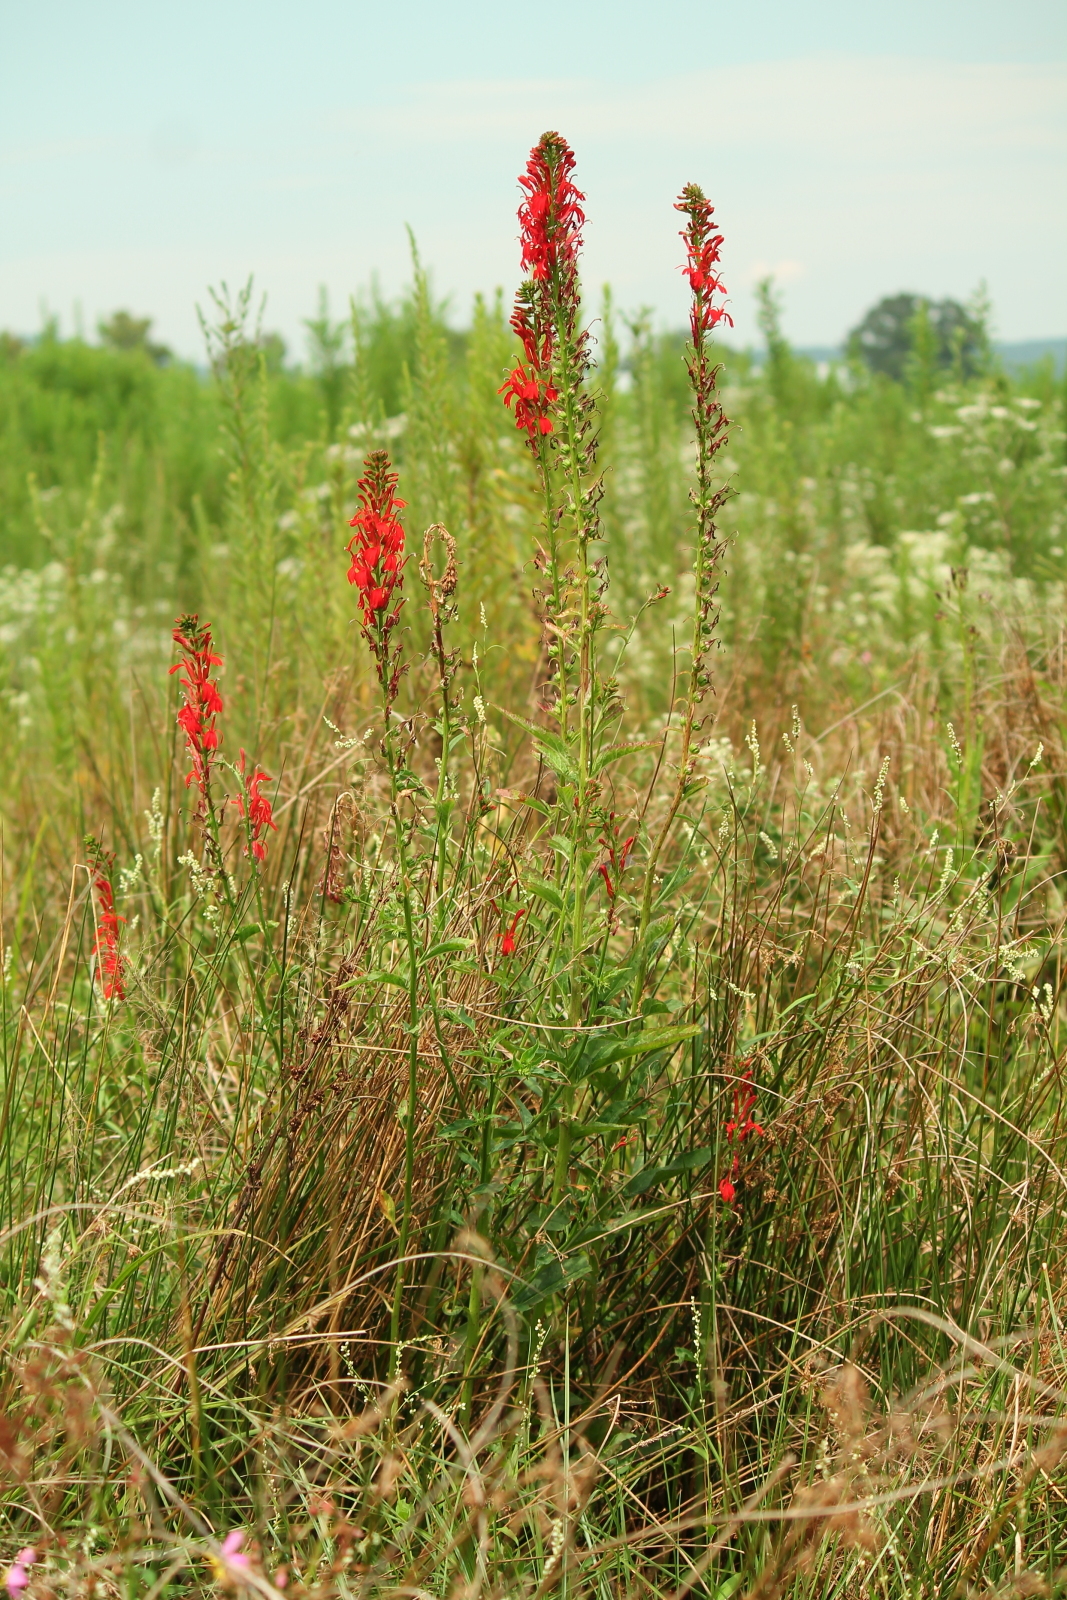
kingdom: Plantae
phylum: Tracheophyta
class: Magnoliopsida
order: Asterales
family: Campanulaceae
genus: Lobelia
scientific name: Lobelia cardinalis
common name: Cardinal flower
